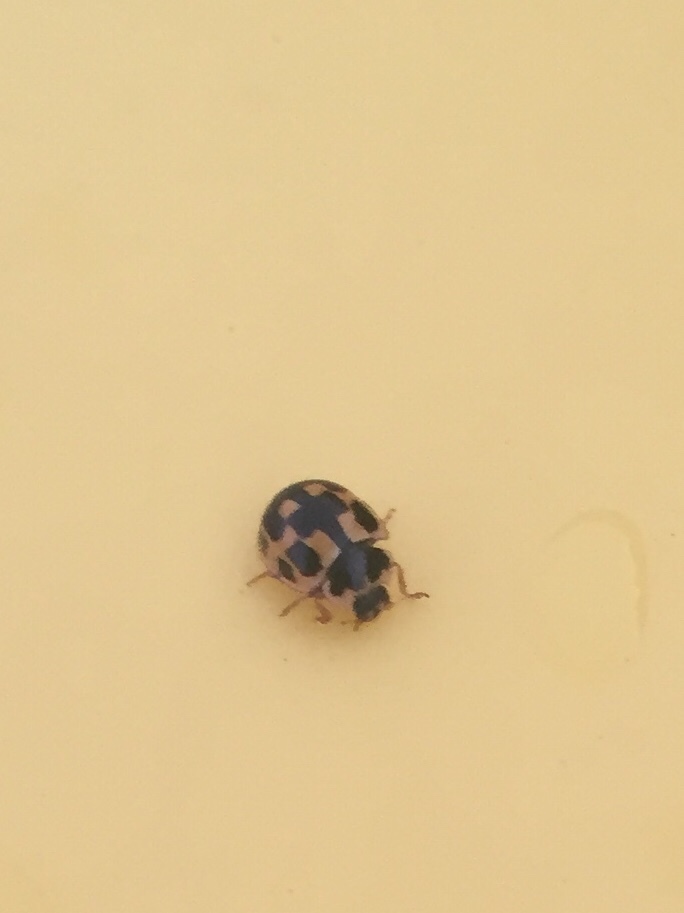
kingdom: Animalia
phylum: Arthropoda
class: Insecta
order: Coleoptera
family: Coccinellidae
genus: Propylaea
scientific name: Propylaea quatuordecimpunctata
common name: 14-spotted ladybird beetle
